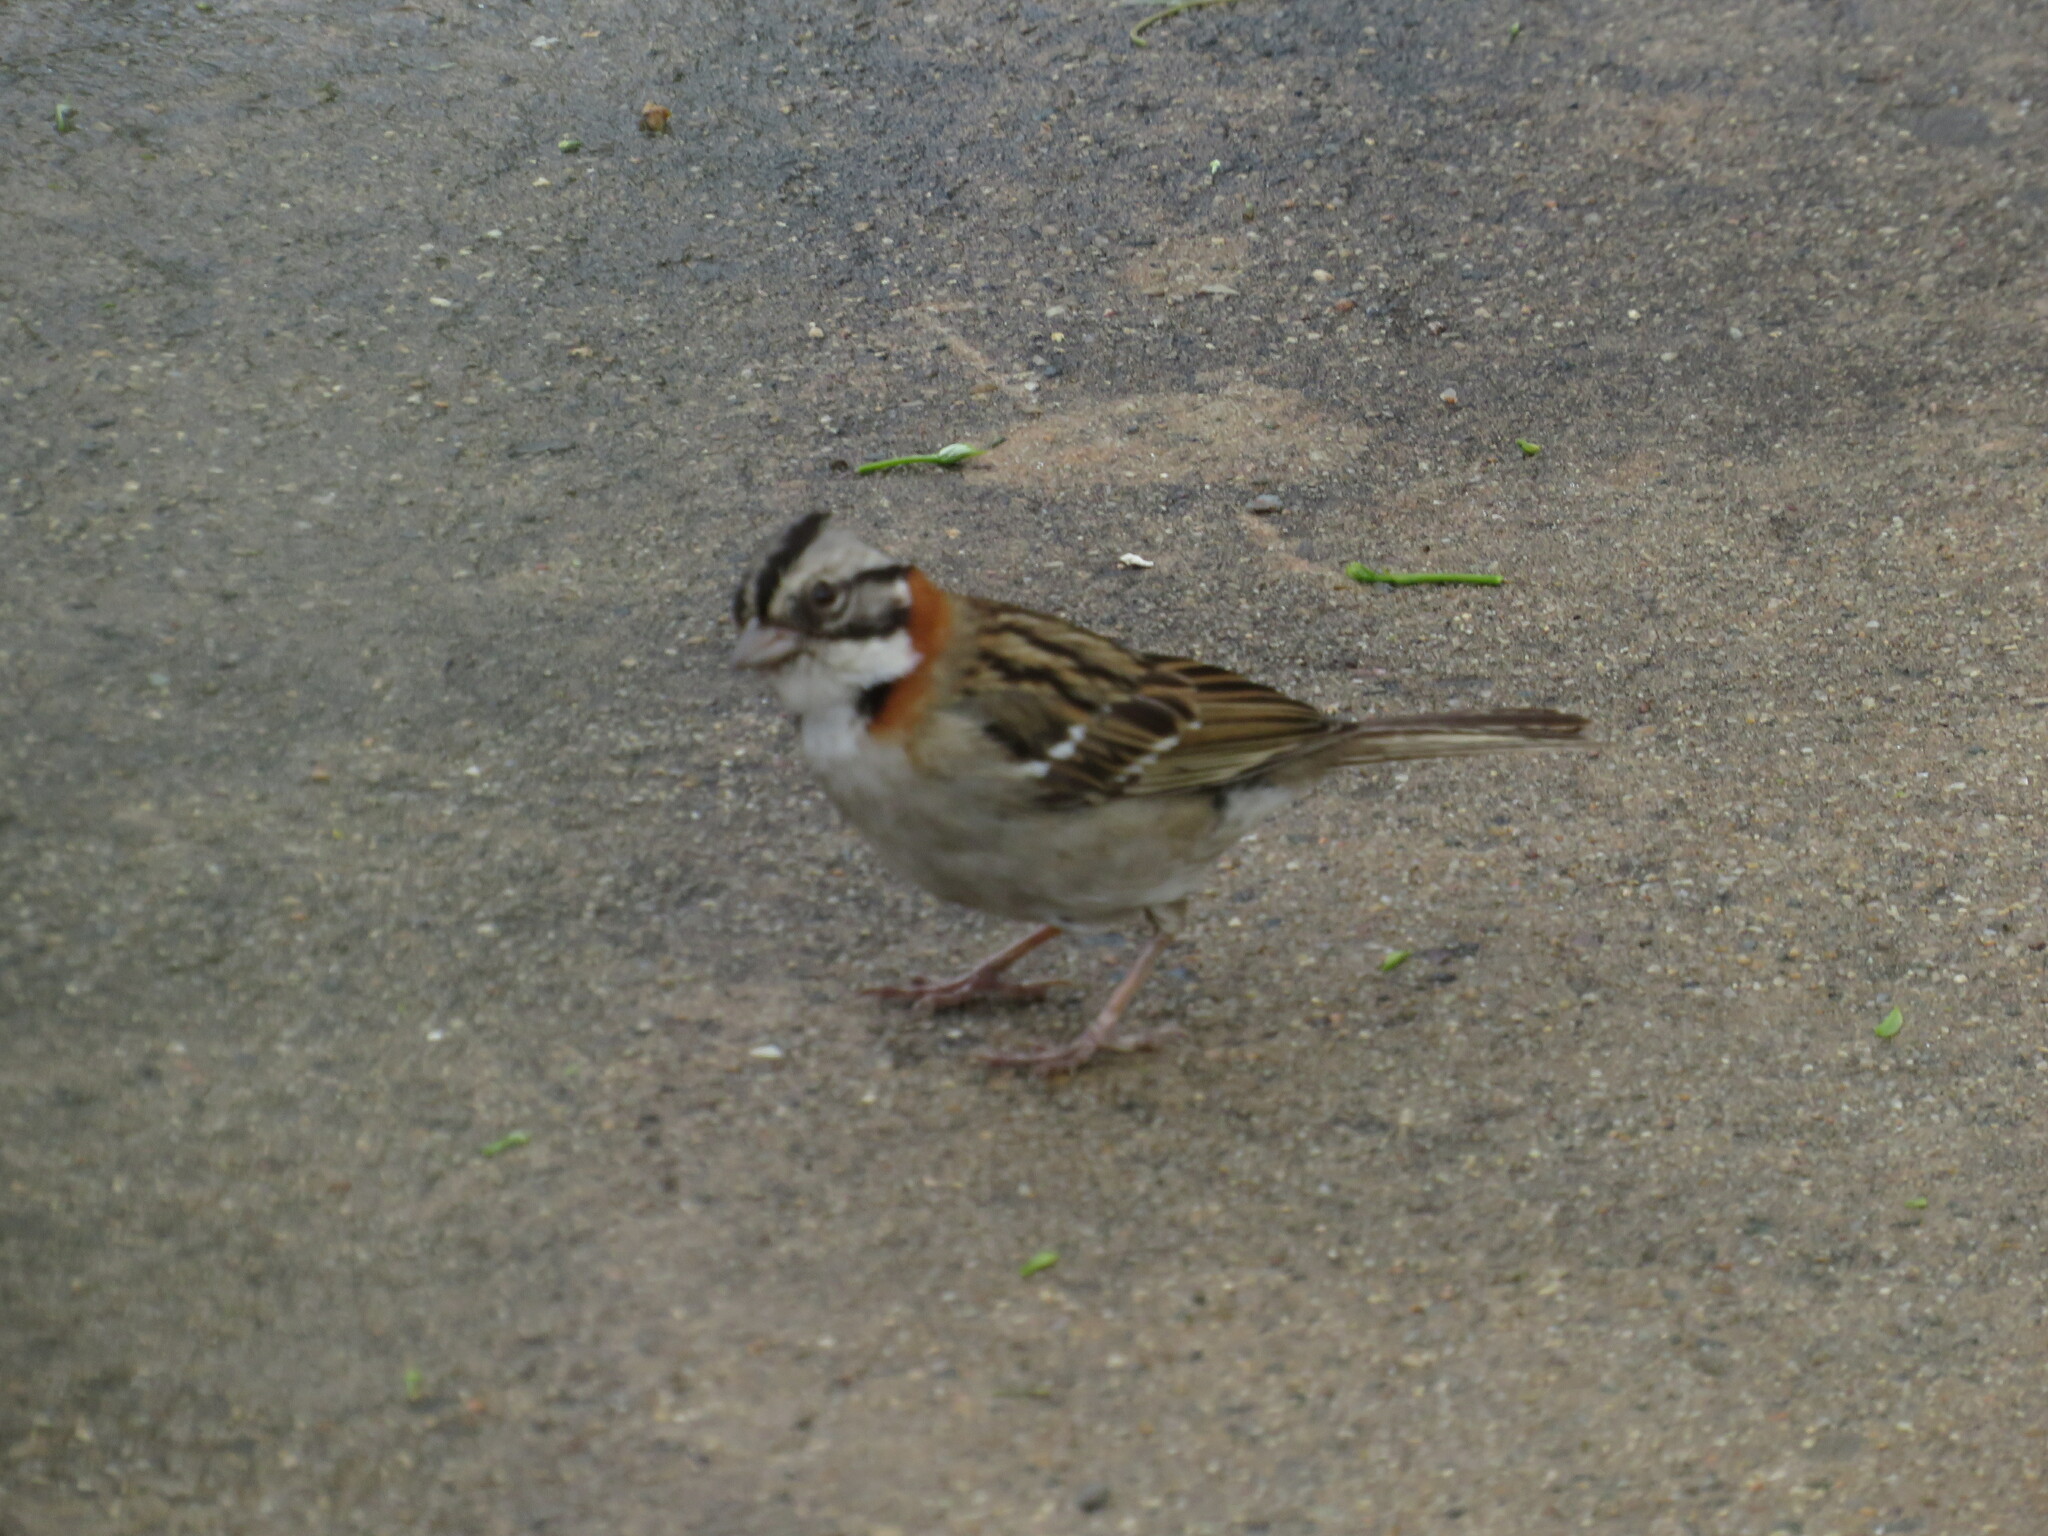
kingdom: Animalia
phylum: Chordata
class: Aves
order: Passeriformes
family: Passerellidae
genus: Zonotrichia
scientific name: Zonotrichia capensis
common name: Rufous-collared sparrow
